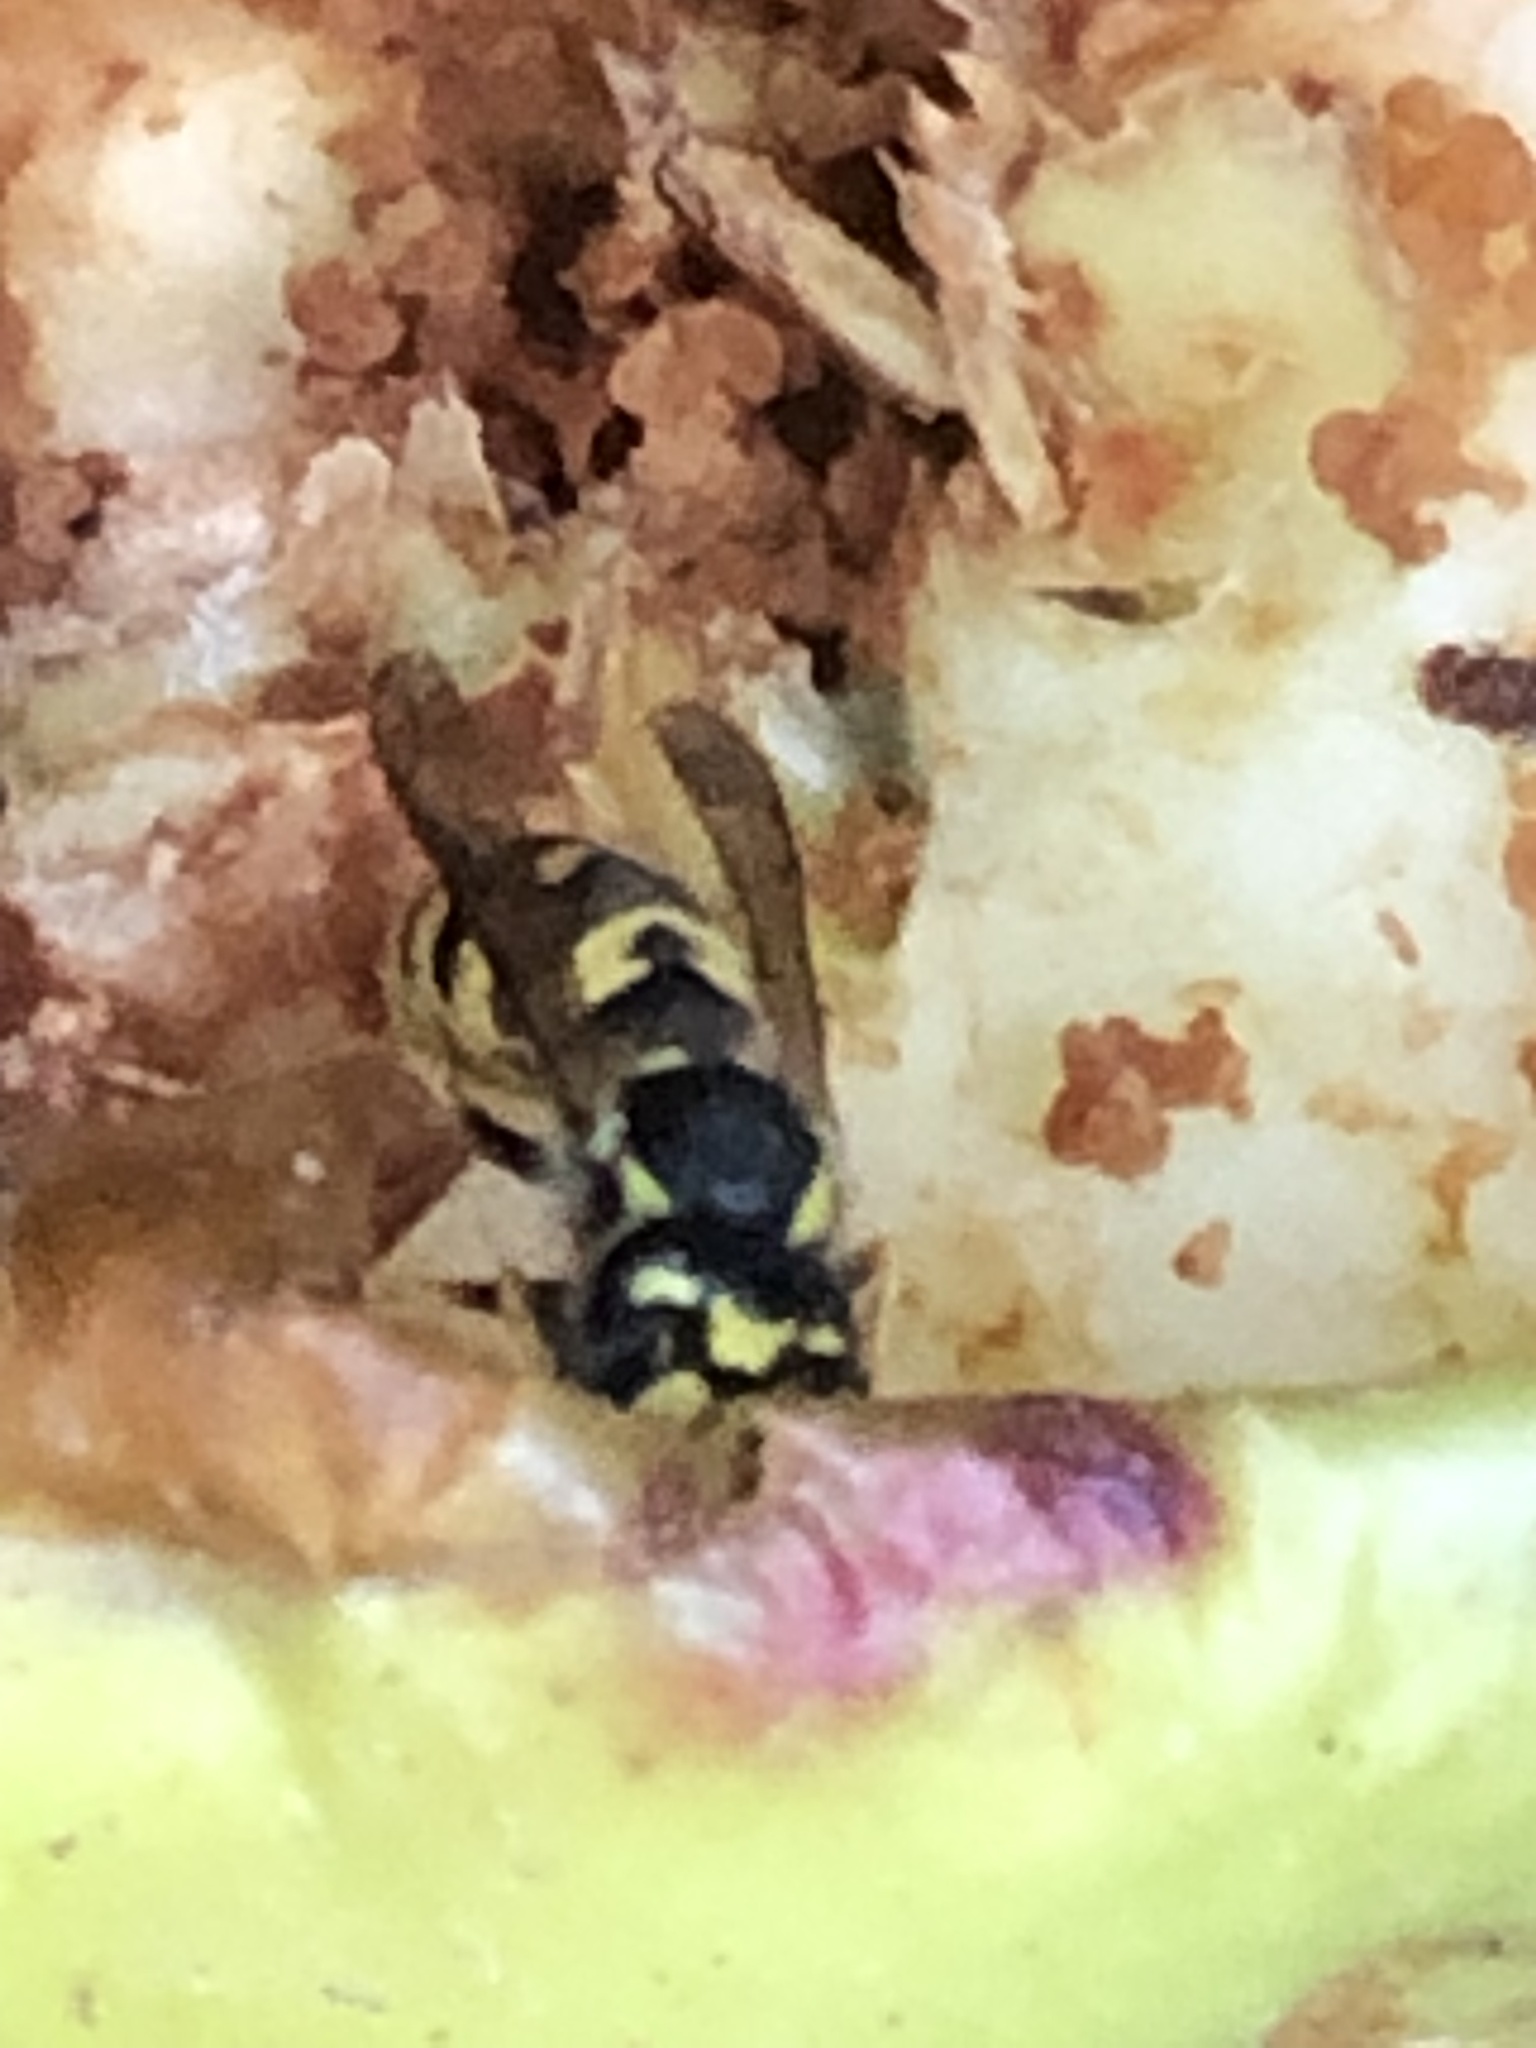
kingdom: Animalia
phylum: Arthropoda
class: Insecta
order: Hymenoptera
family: Vespidae
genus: Vespula
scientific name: Vespula germanica
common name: German wasp
